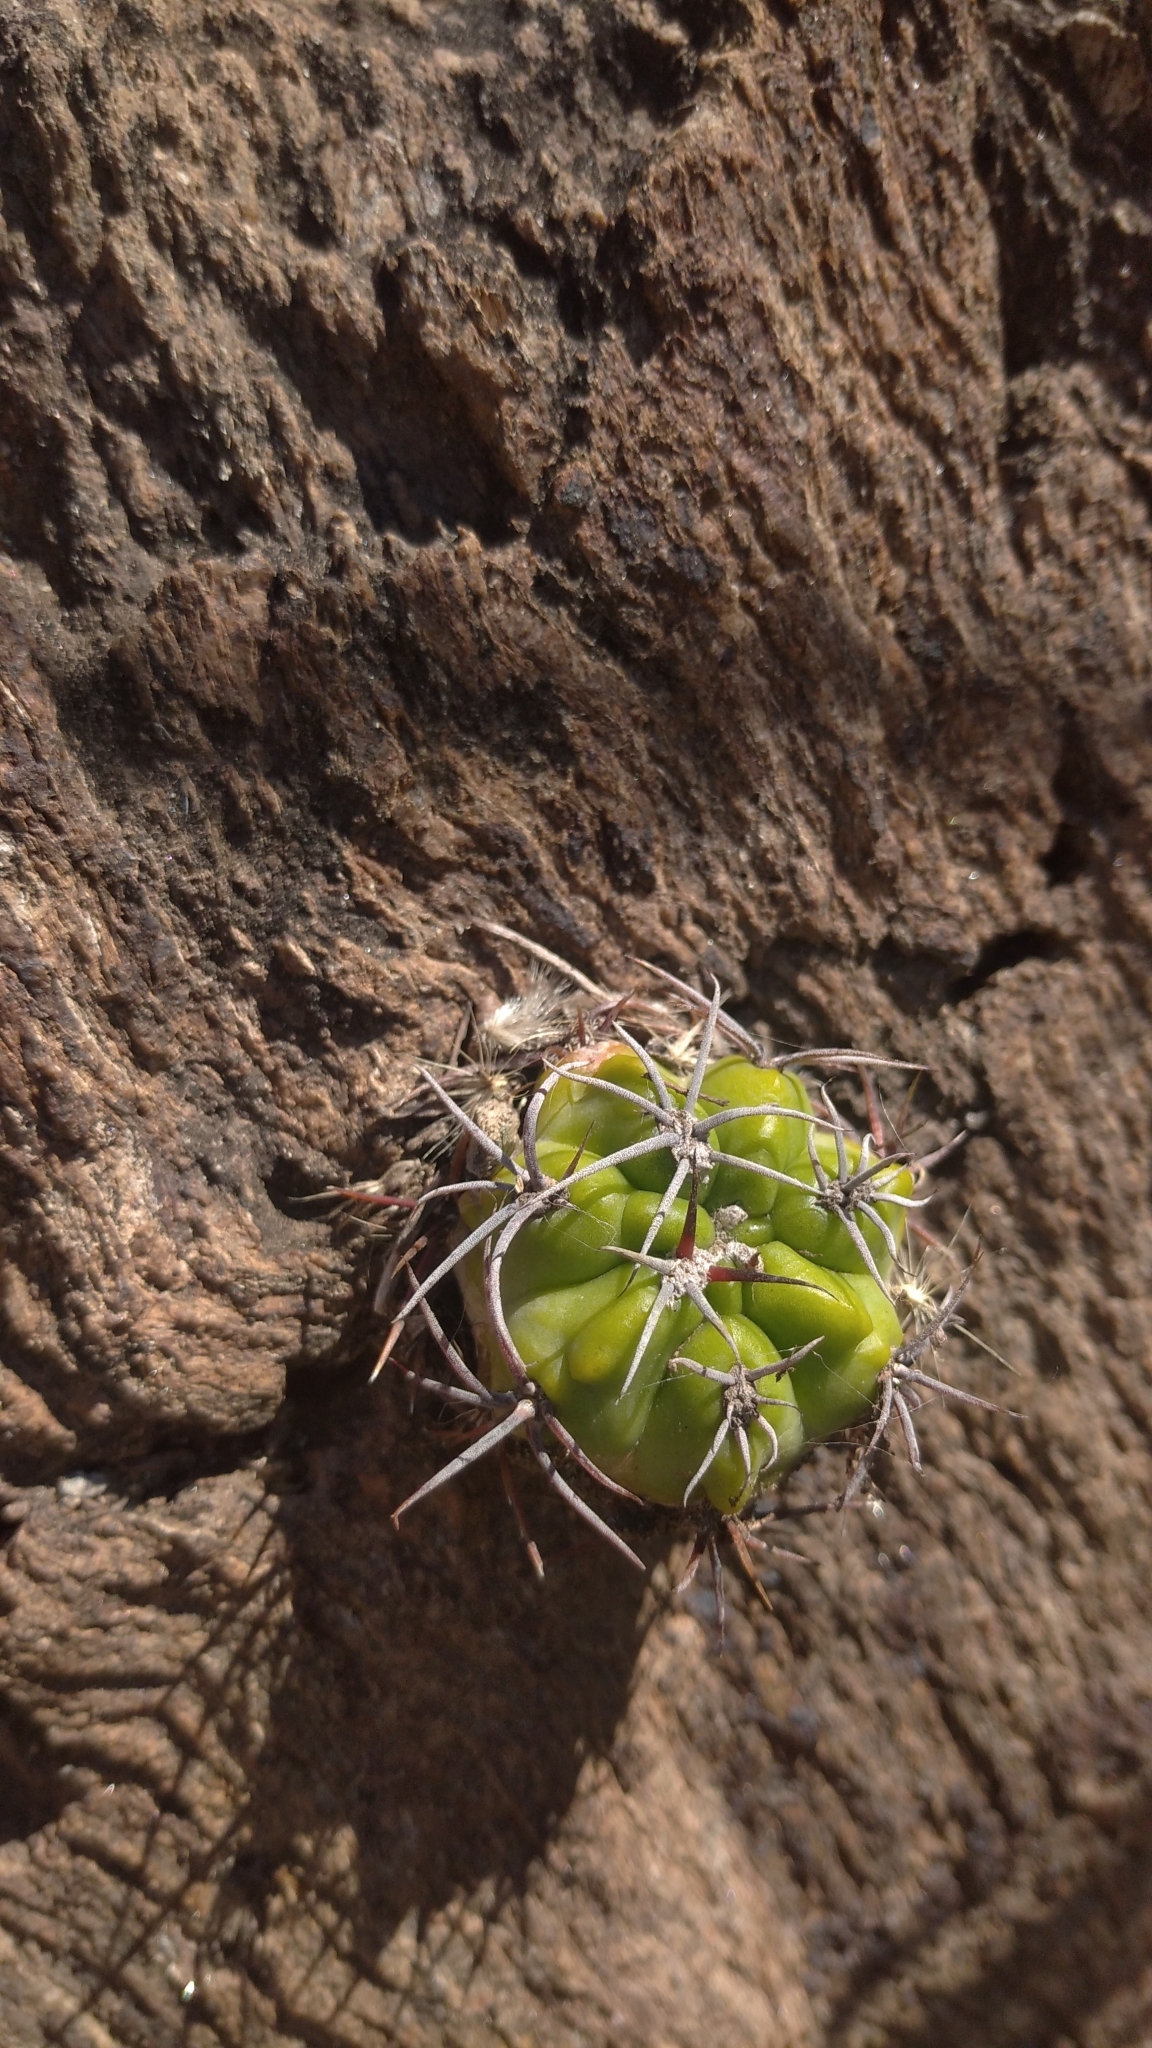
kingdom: Plantae
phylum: Tracheophyta
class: Magnoliopsida
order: Caryophyllales
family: Cactaceae
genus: Gymnocalycium
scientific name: Gymnocalycium monvillei
